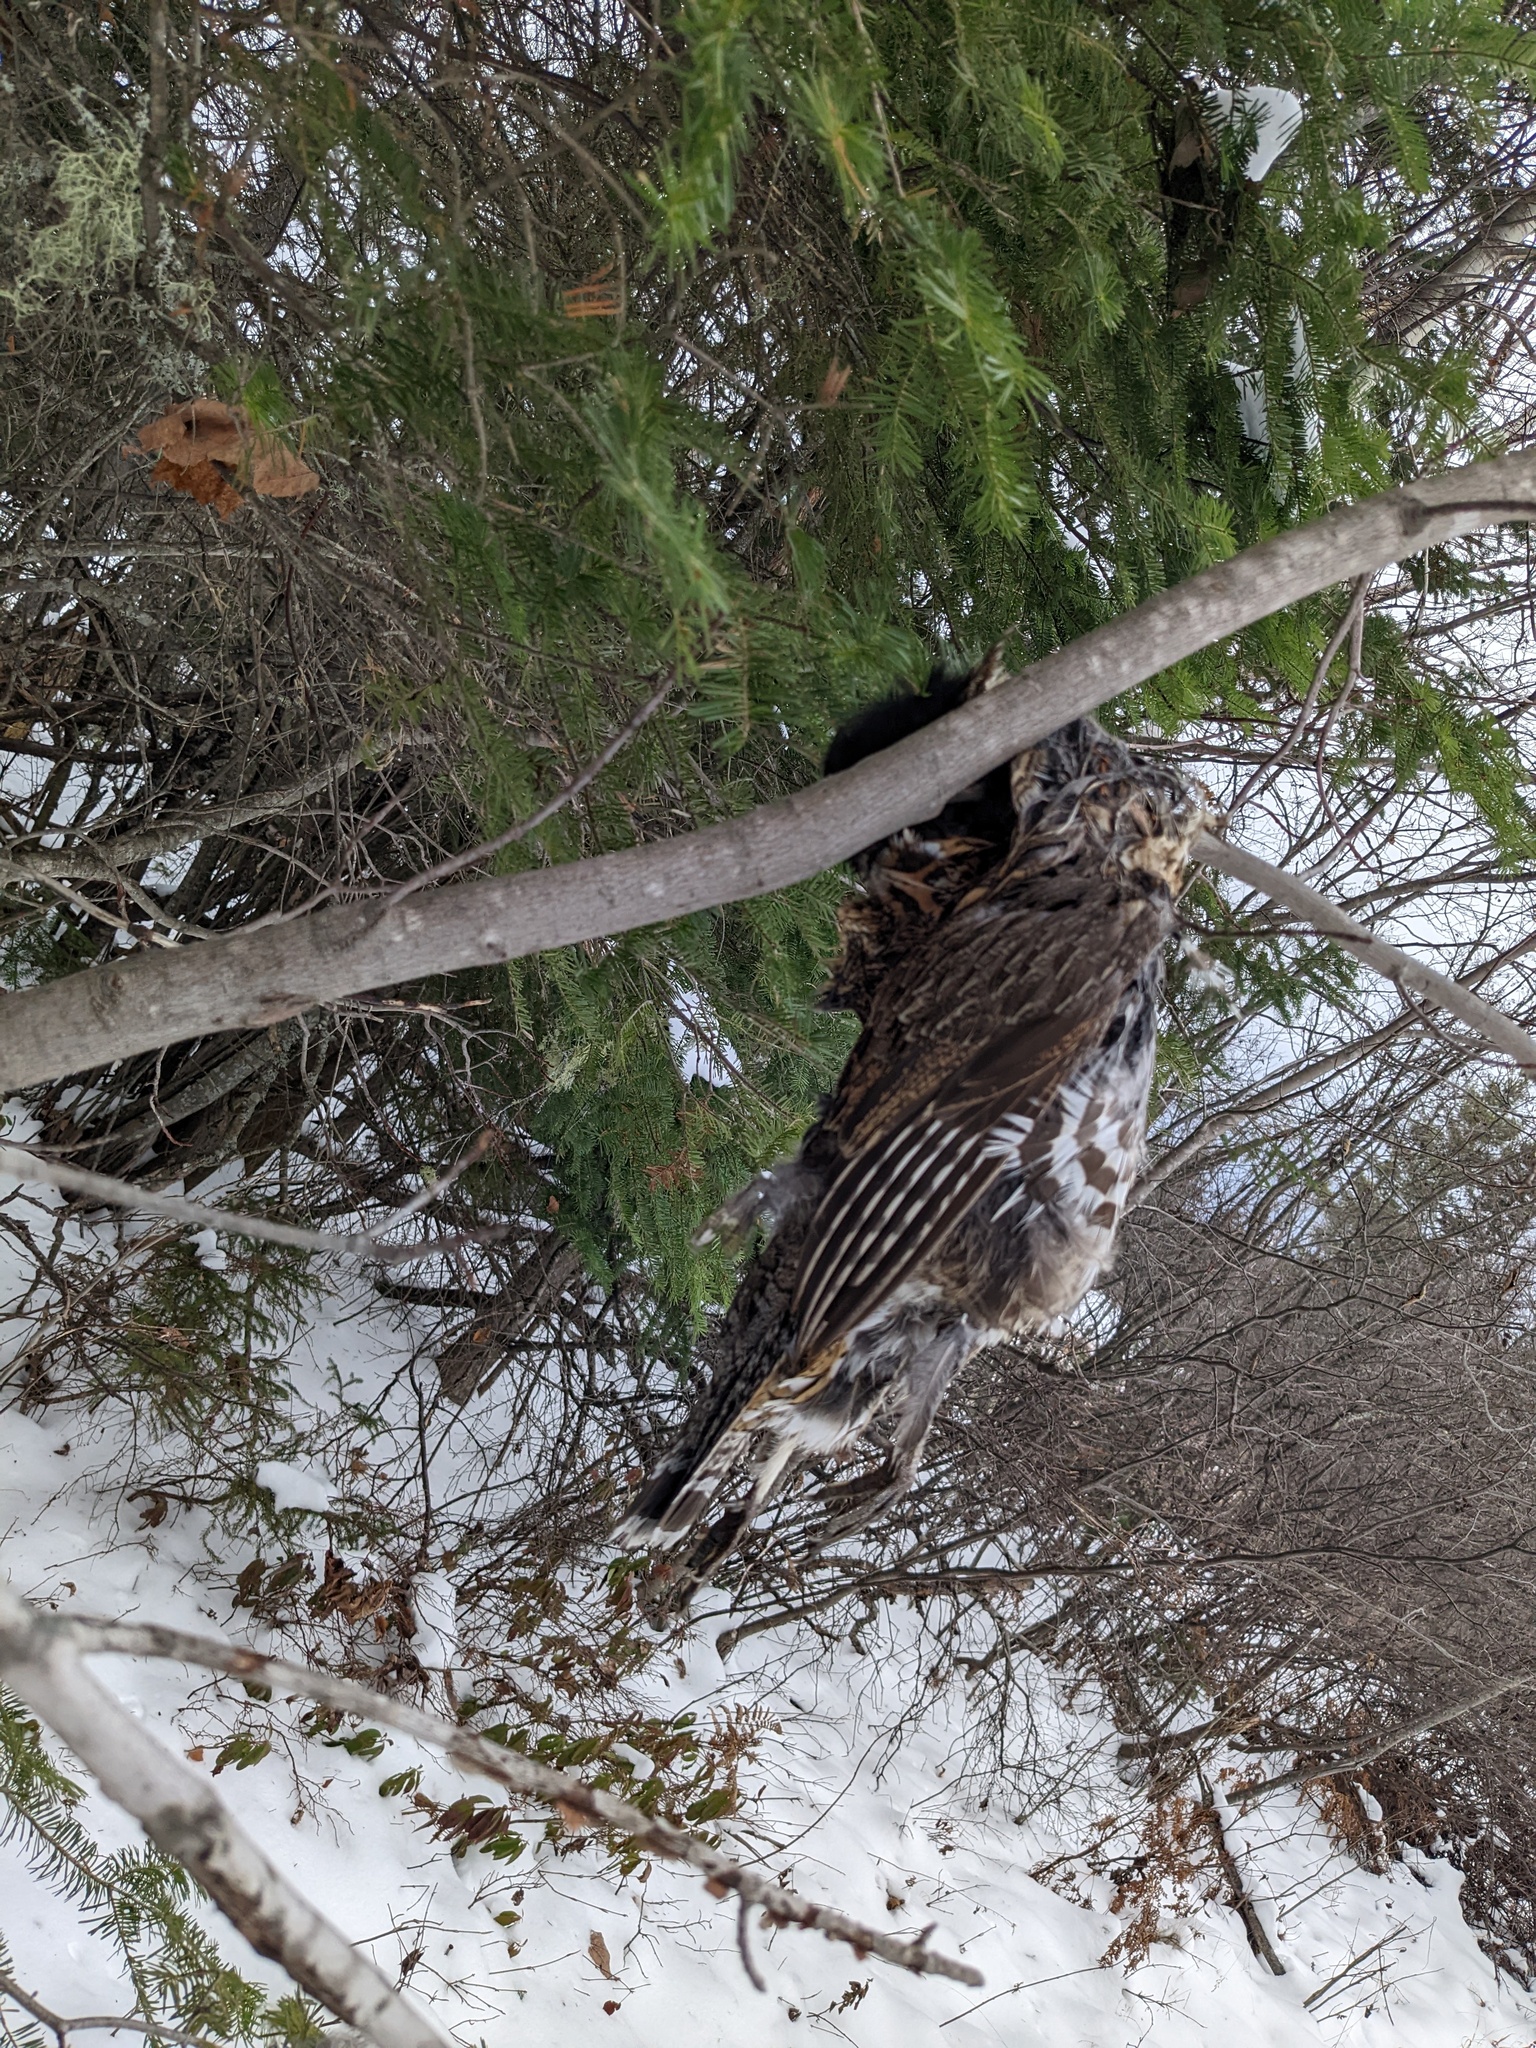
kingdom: Animalia
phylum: Chordata
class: Aves
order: Galliformes
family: Phasianidae
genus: Bonasa
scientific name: Bonasa umbellus
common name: Ruffed grouse
